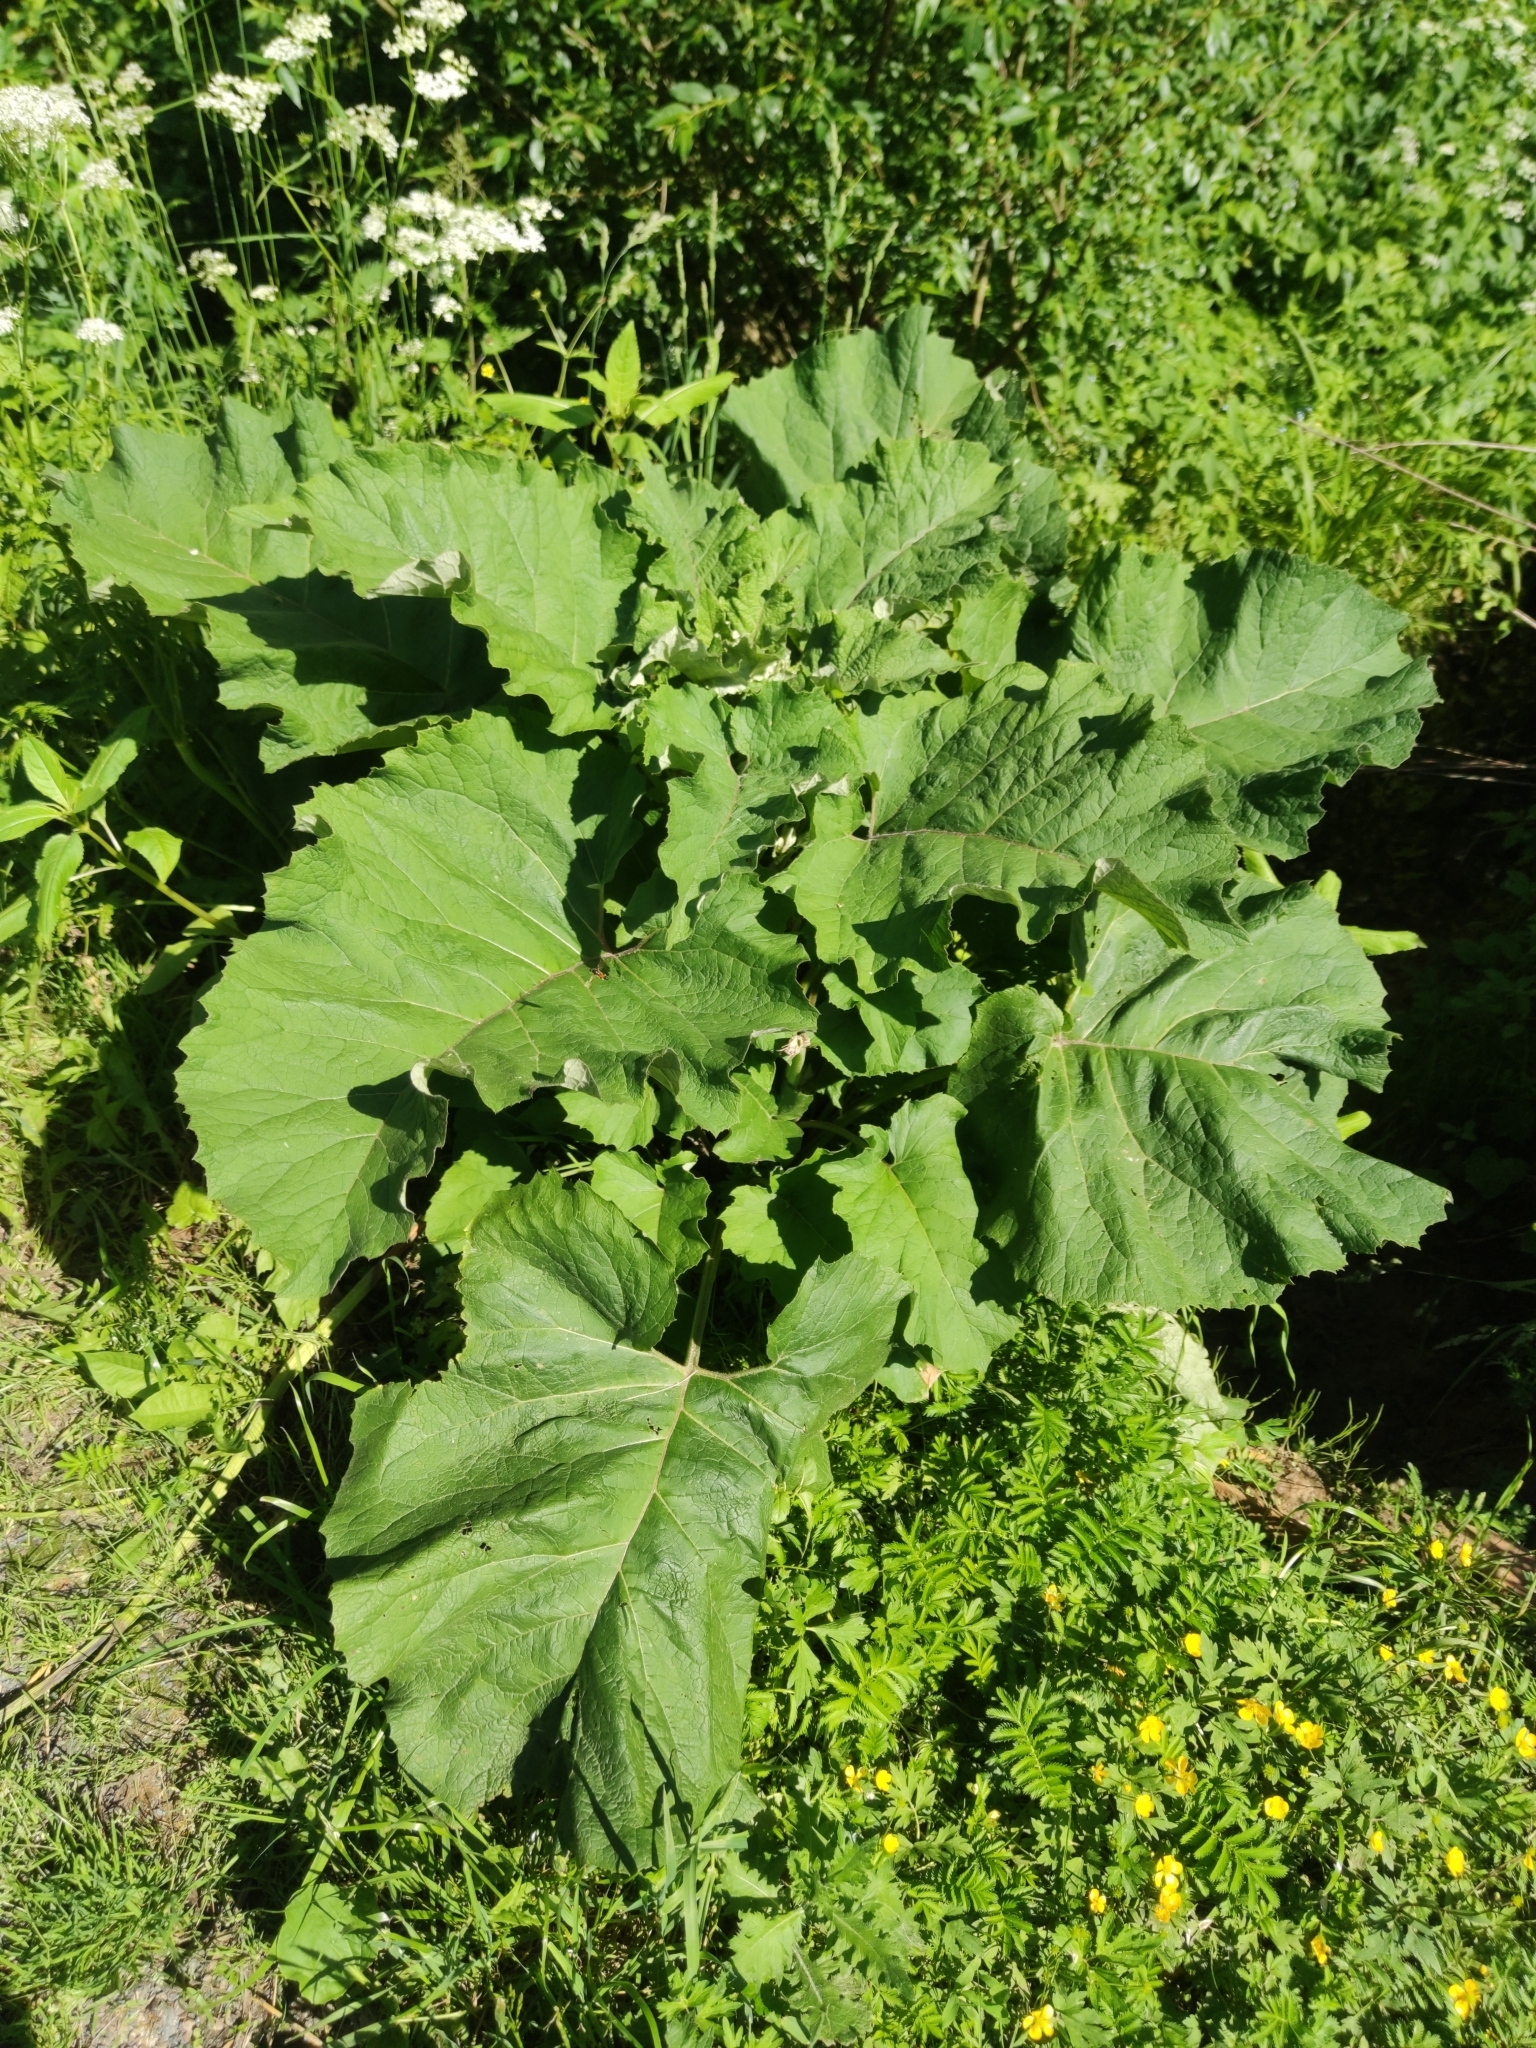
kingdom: Plantae
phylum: Tracheophyta
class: Magnoliopsida
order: Asterales
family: Asteraceae
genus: Arctium
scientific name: Arctium tomentosum
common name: Woolly burdock
